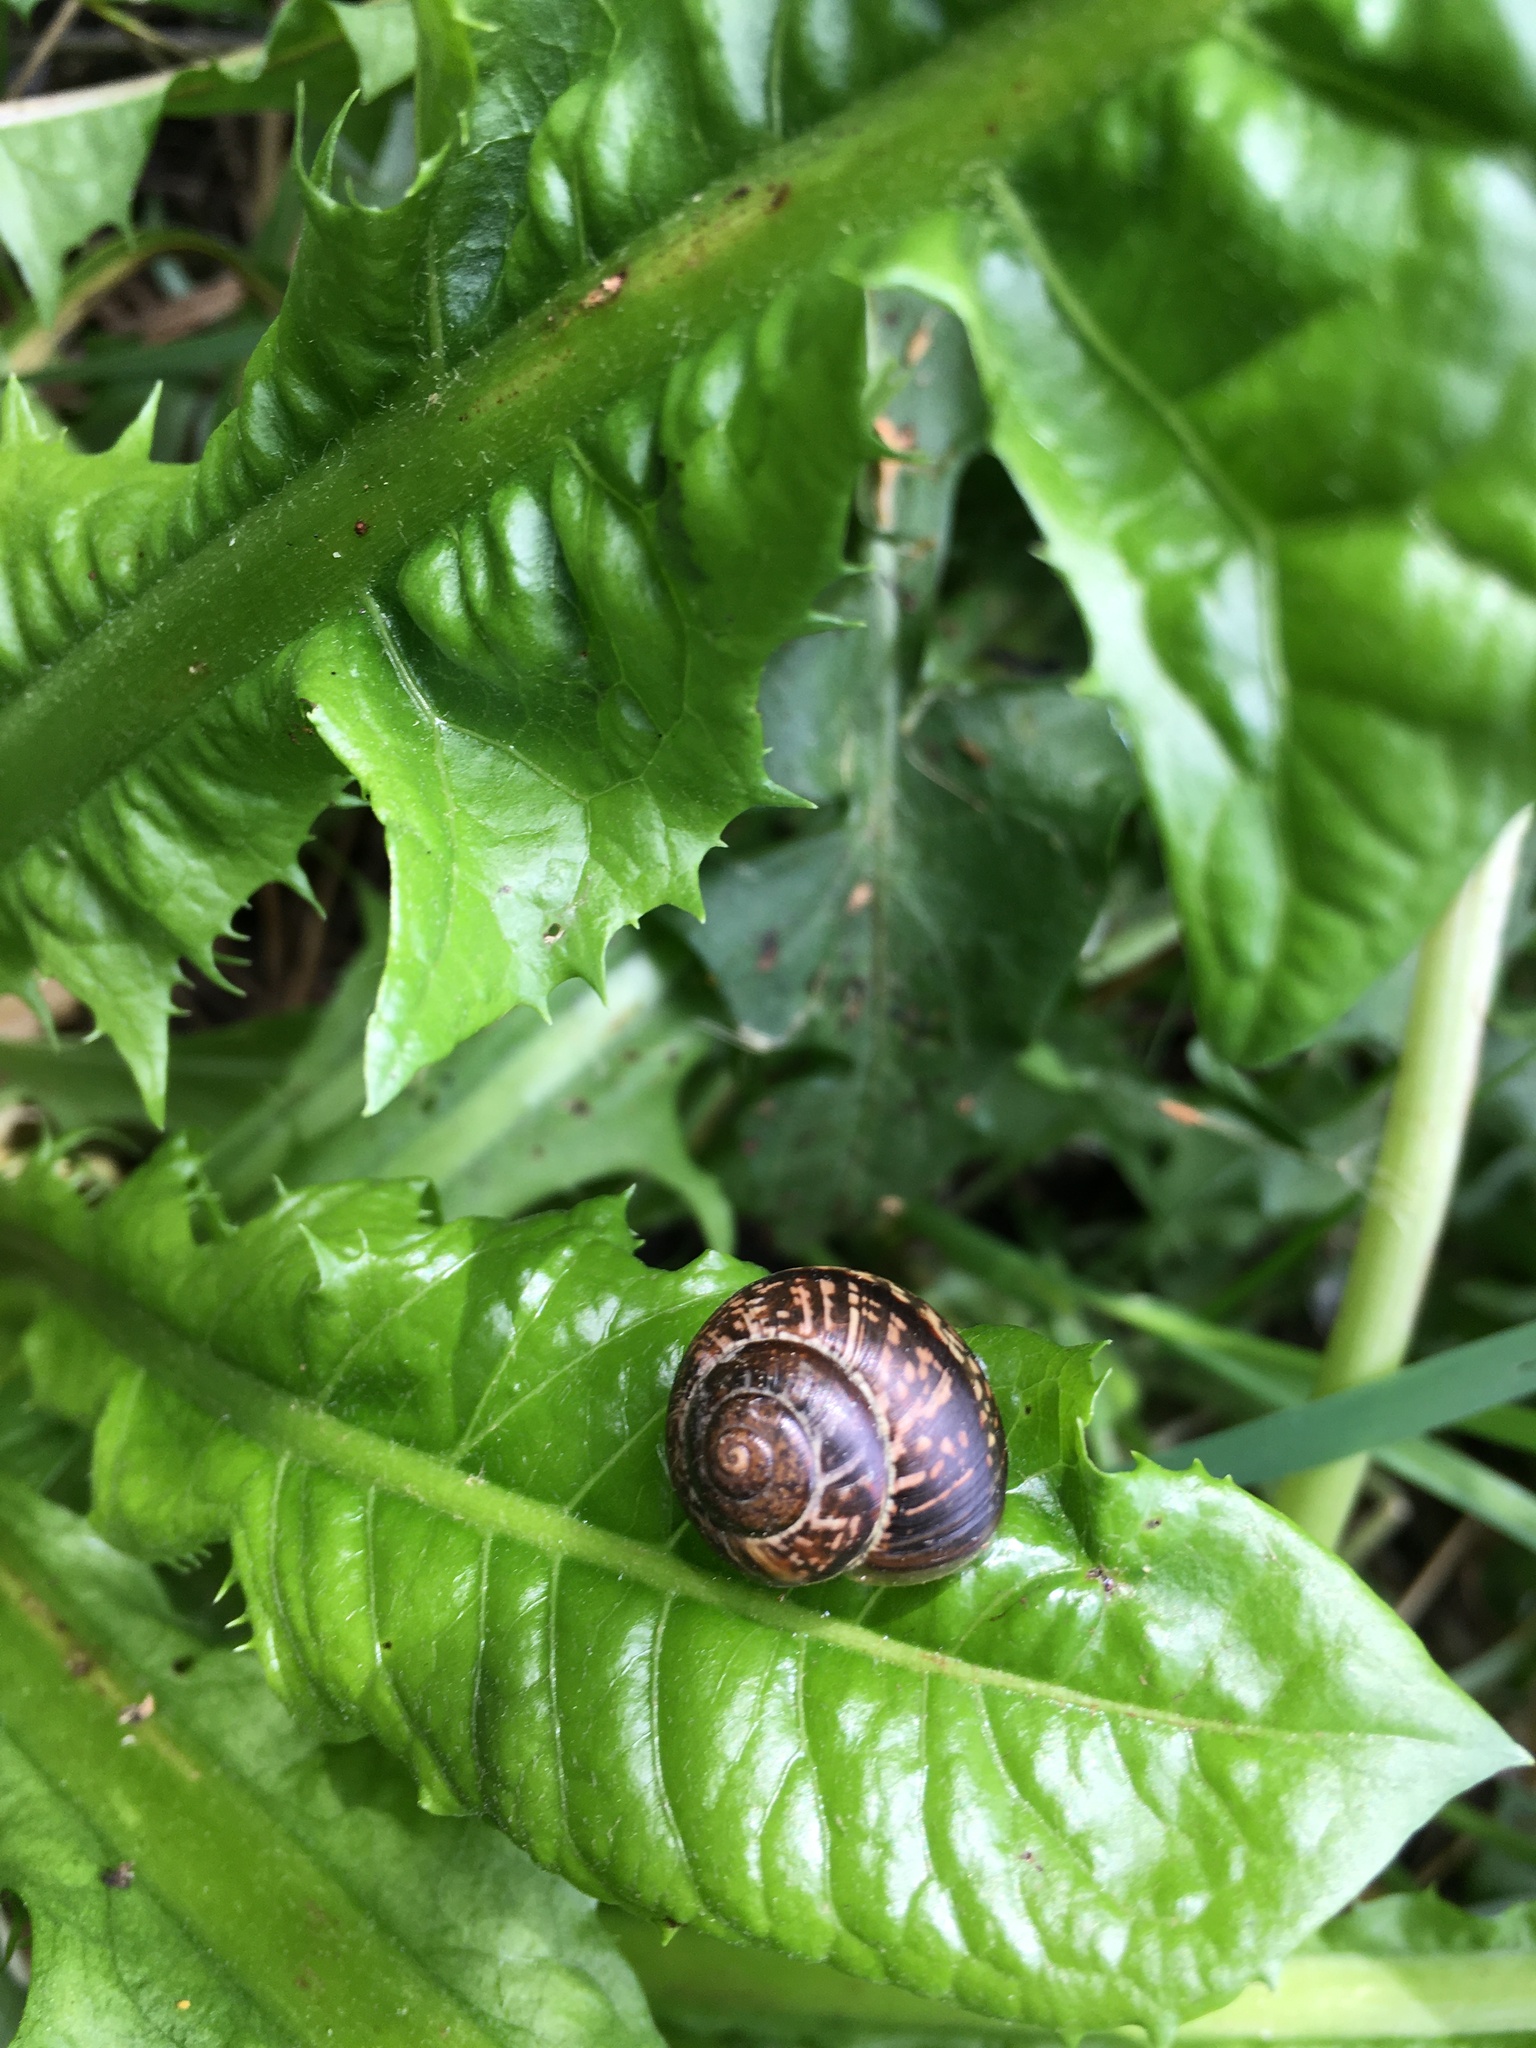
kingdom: Animalia
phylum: Mollusca
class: Gastropoda
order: Stylommatophora
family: Helicidae
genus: Arianta
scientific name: Arianta arbustorum
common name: Copse snail
